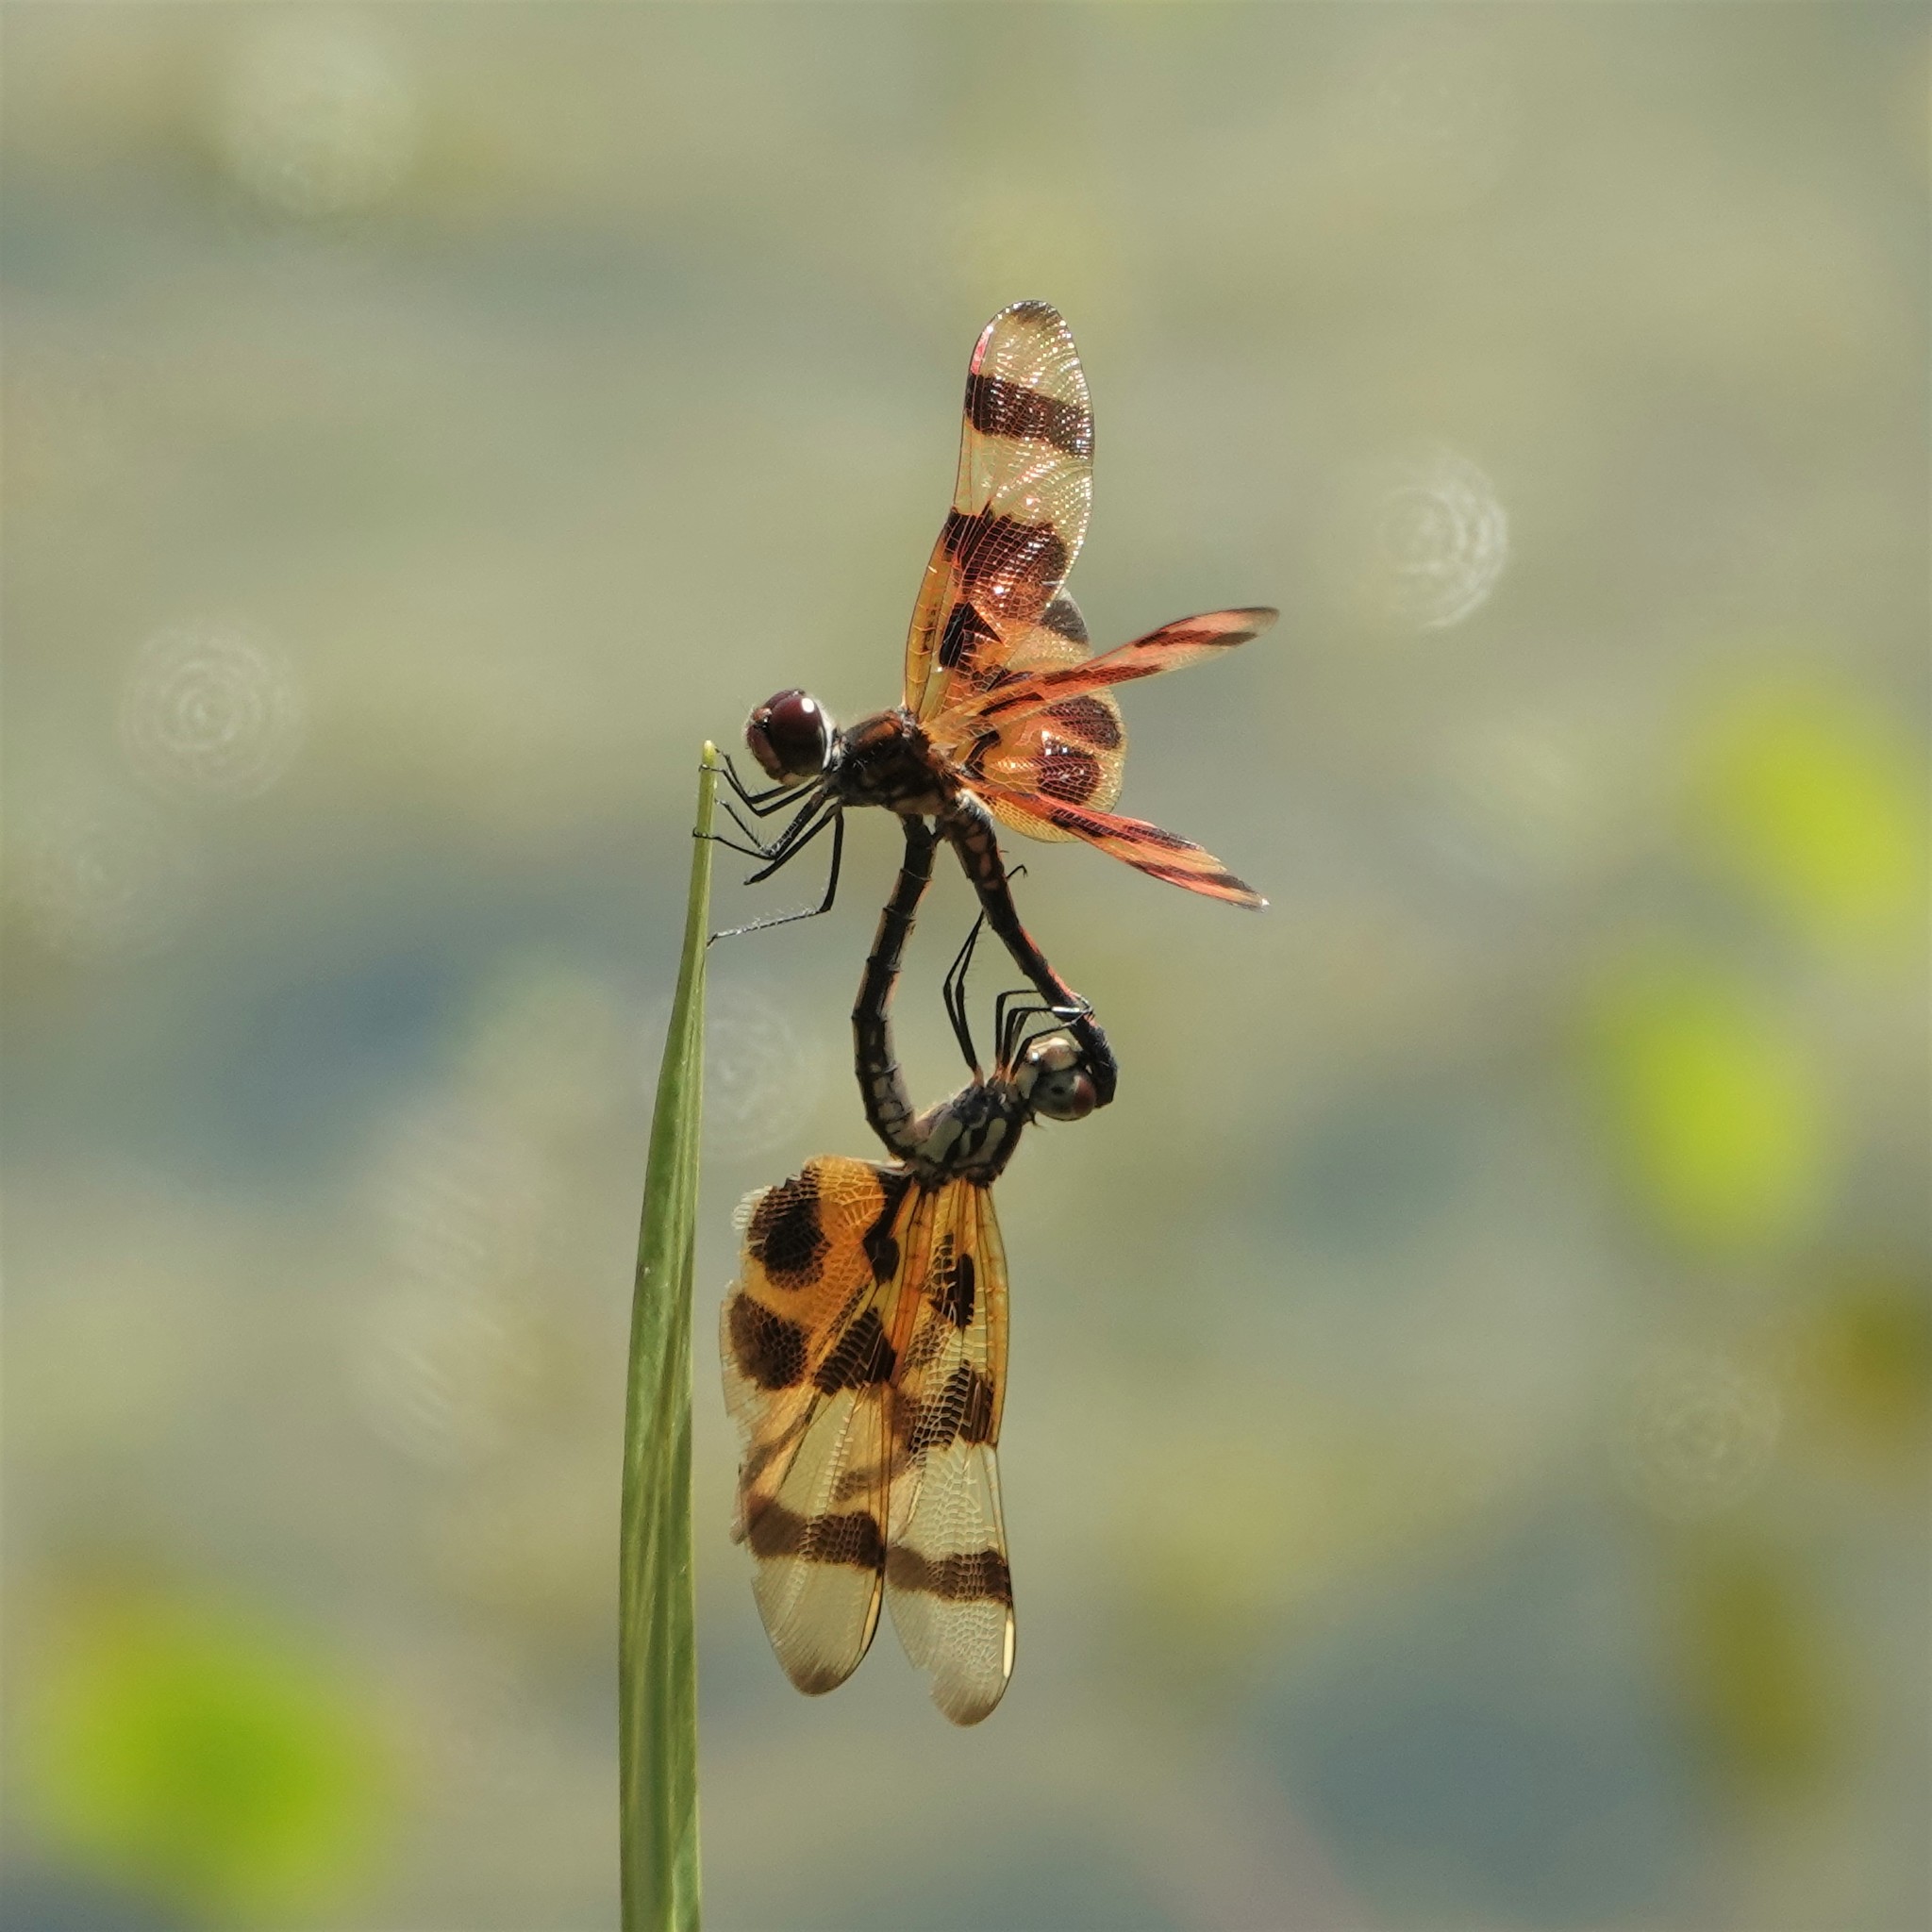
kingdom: Animalia
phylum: Arthropoda
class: Insecta
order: Odonata
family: Libellulidae
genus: Celithemis
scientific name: Celithemis eponina
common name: Halloween pennant
